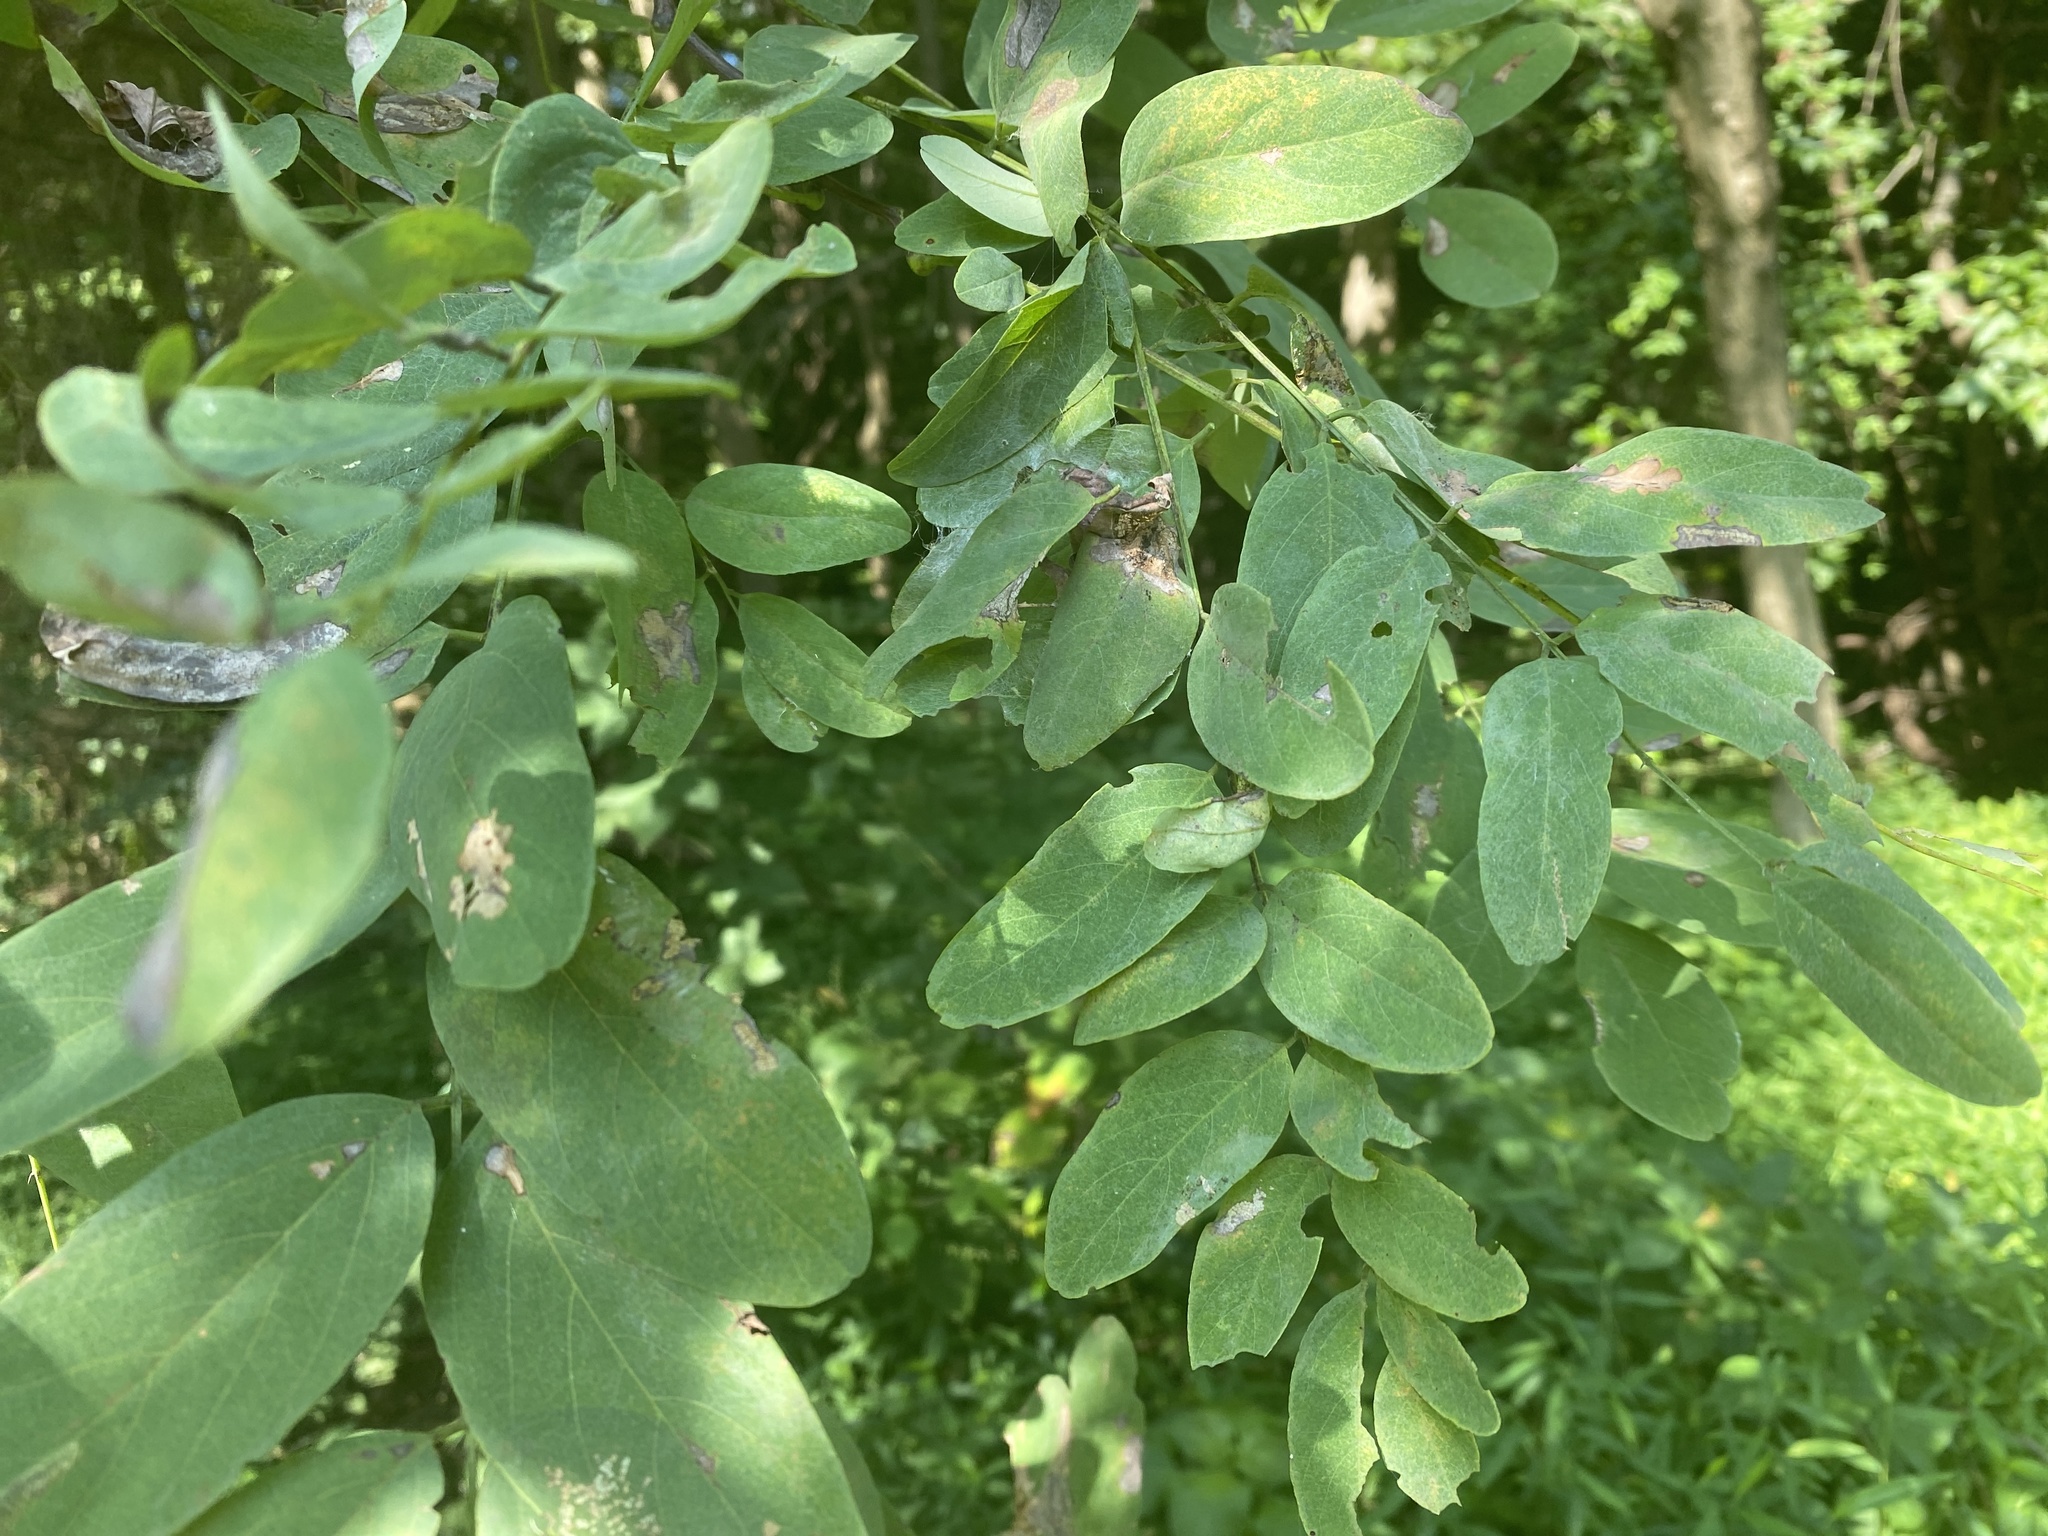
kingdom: Plantae
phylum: Tracheophyta
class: Magnoliopsida
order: Fabales
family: Fabaceae
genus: Robinia
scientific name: Robinia pseudoacacia
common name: Black locust
